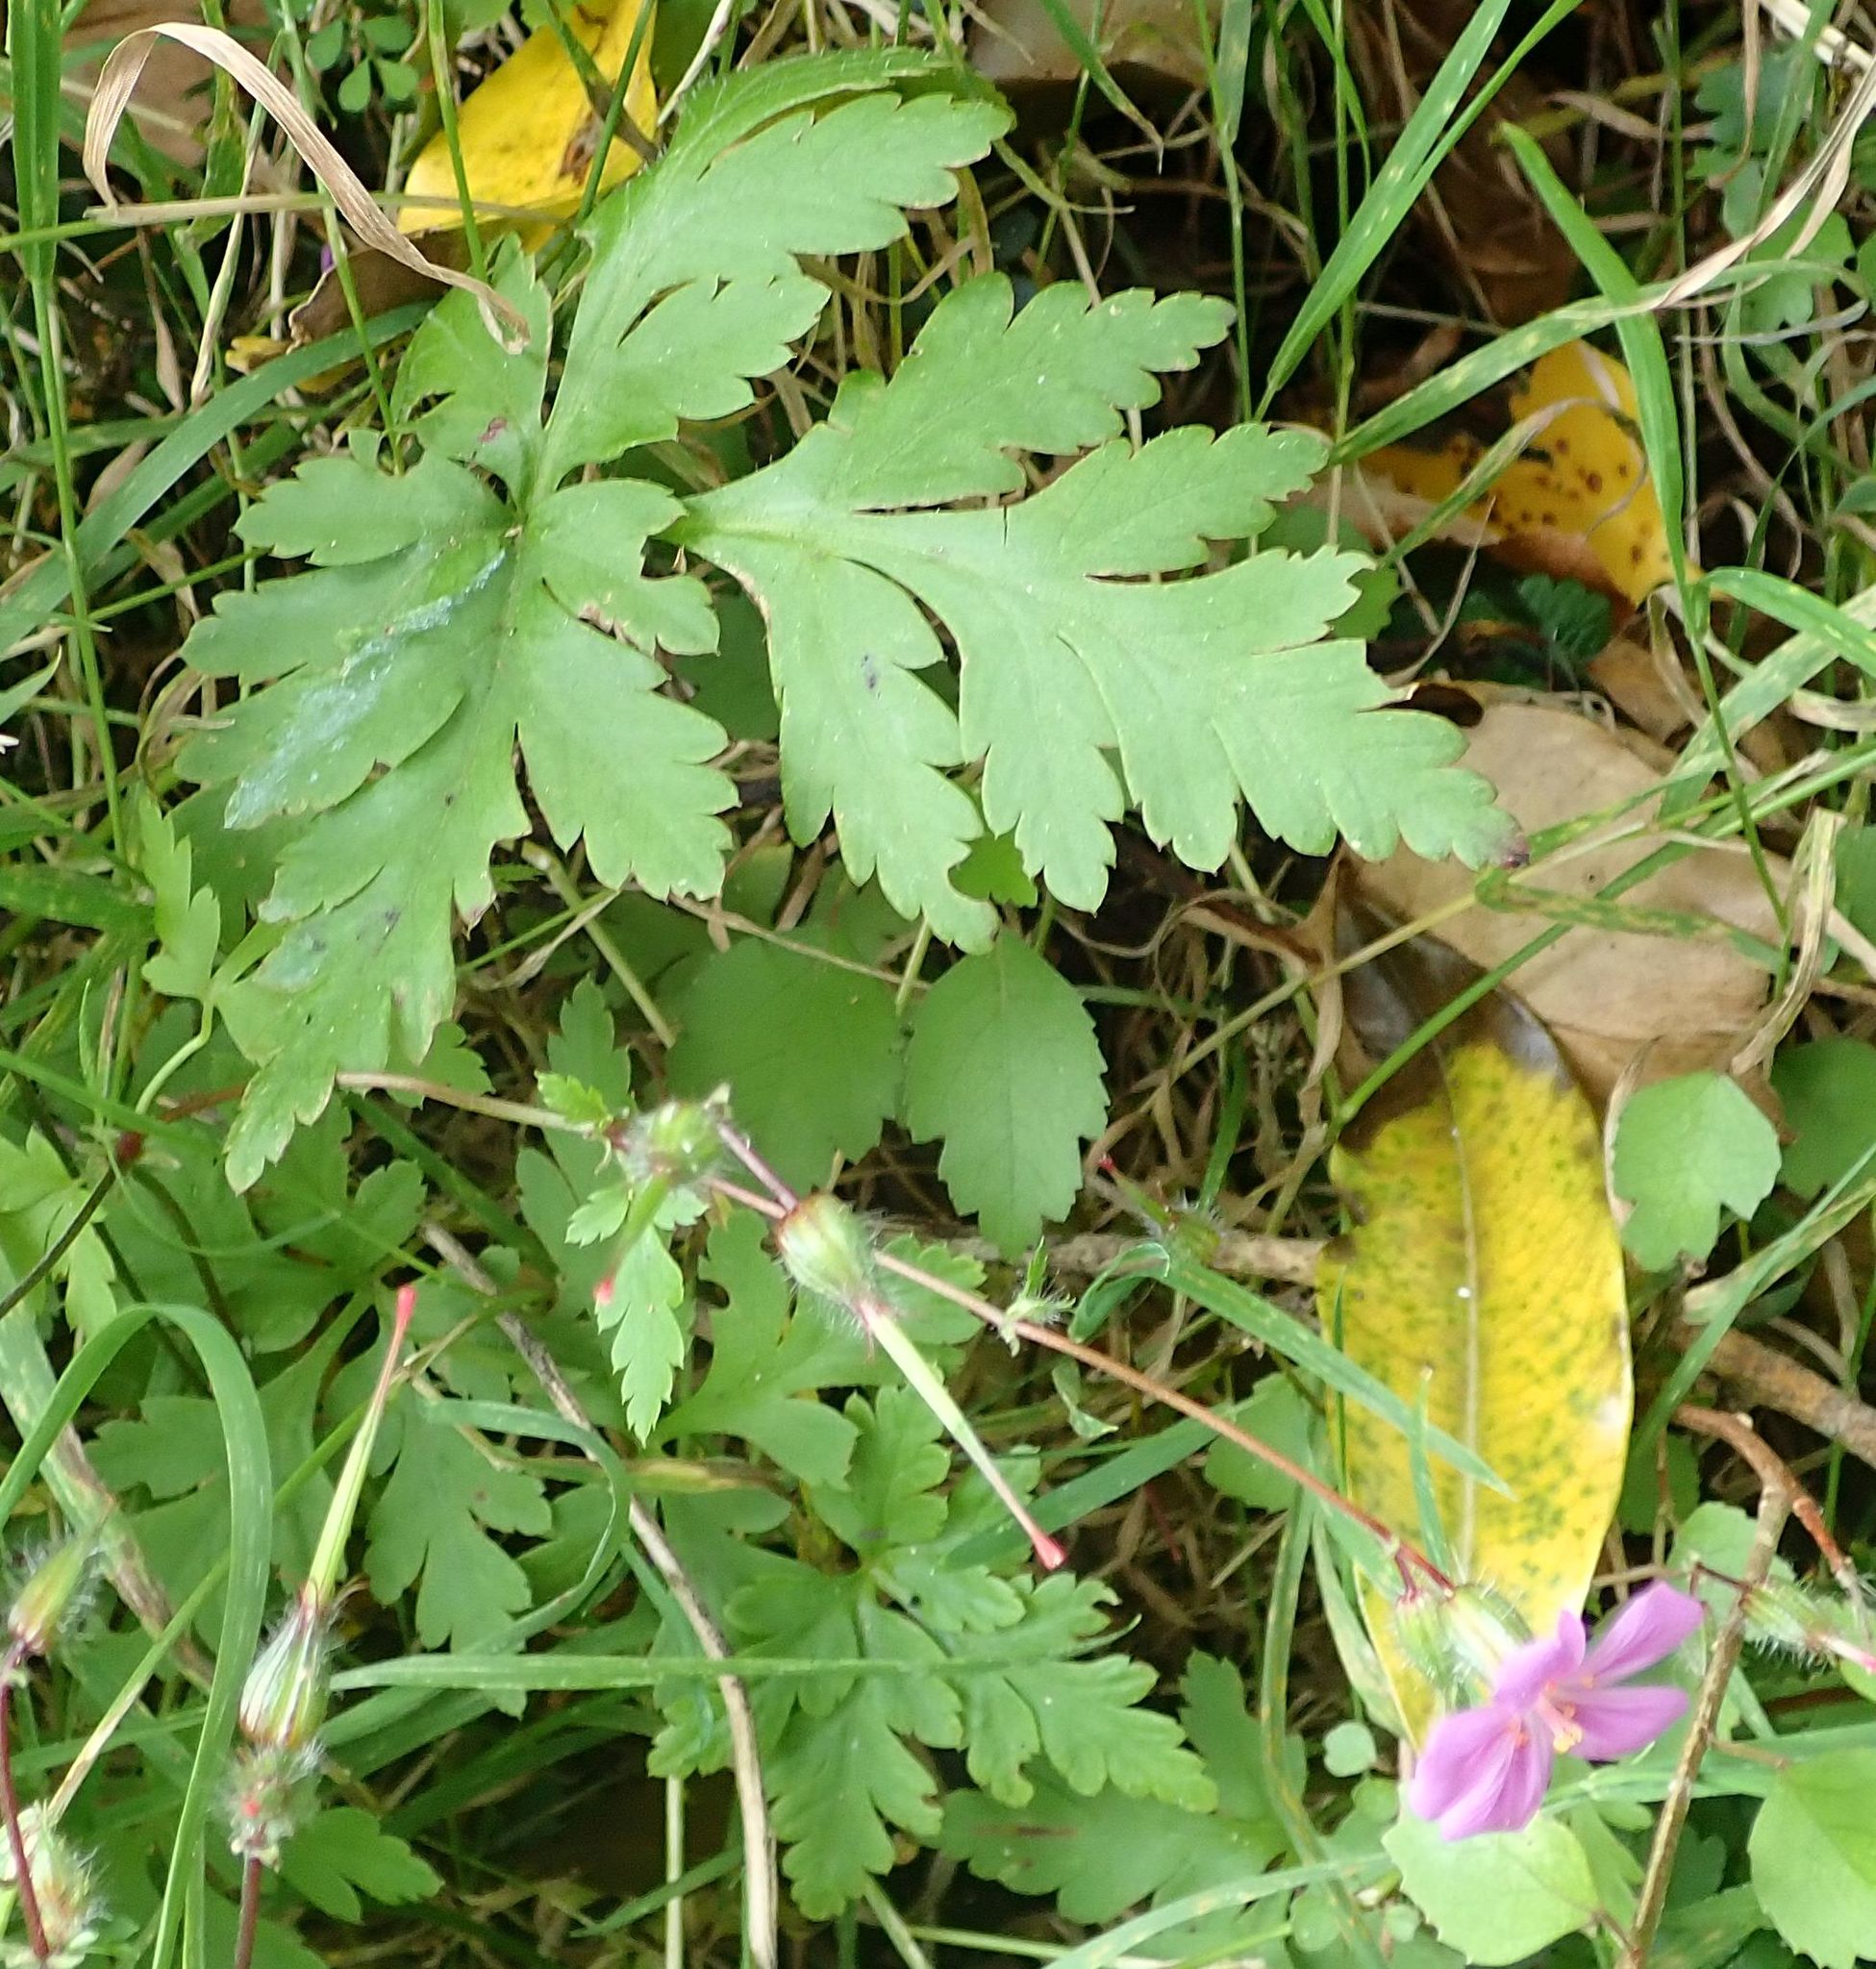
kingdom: Plantae
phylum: Tracheophyta
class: Magnoliopsida
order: Geraniales
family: Geraniaceae
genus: Geranium
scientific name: Geranium yeoi
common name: Greater herb robert
